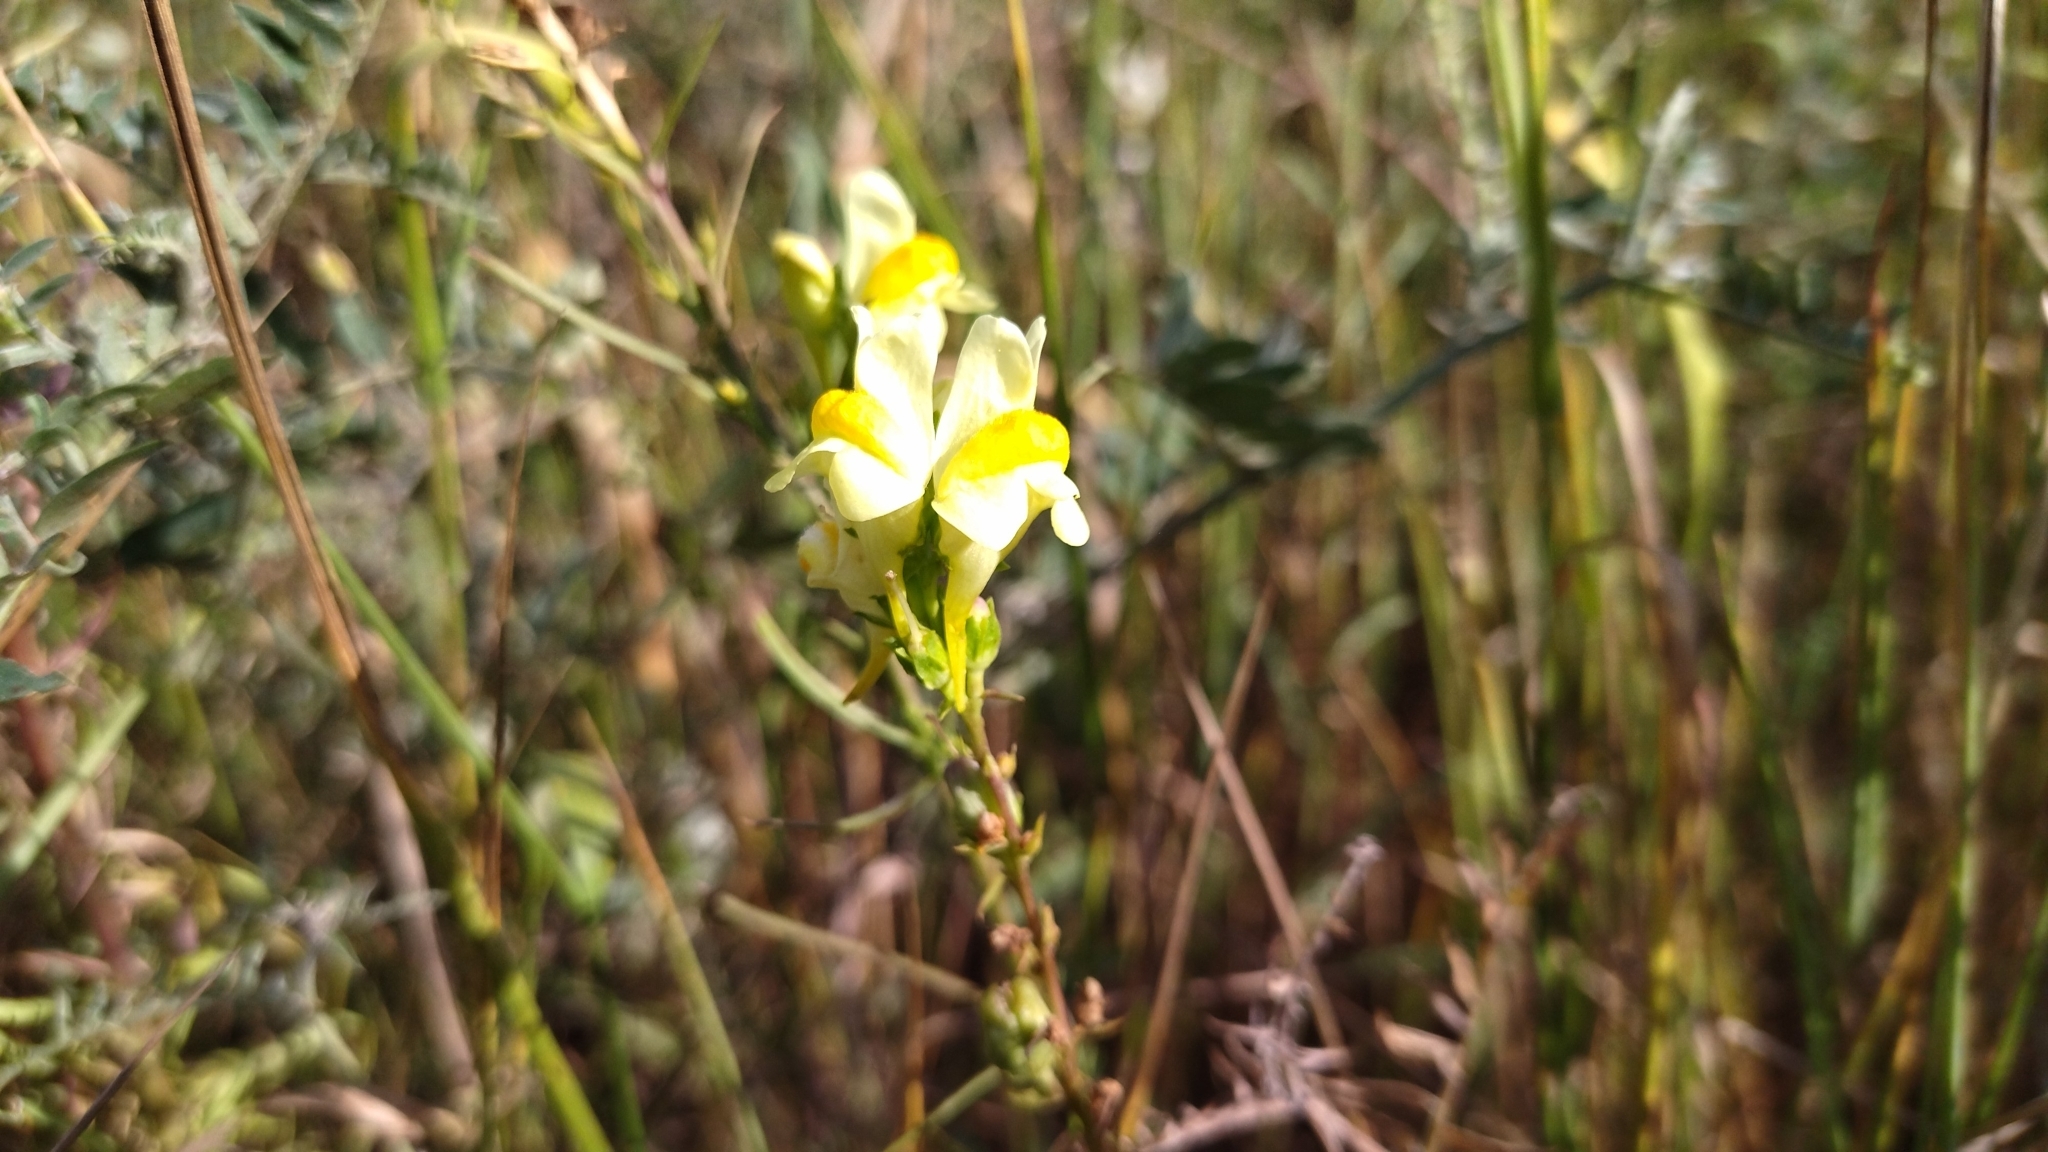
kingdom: Plantae
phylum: Tracheophyta
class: Magnoliopsida
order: Lamiales
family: Plantaginaceae
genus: Linaria
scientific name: Linaria vulgaris
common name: Butter and eggs
